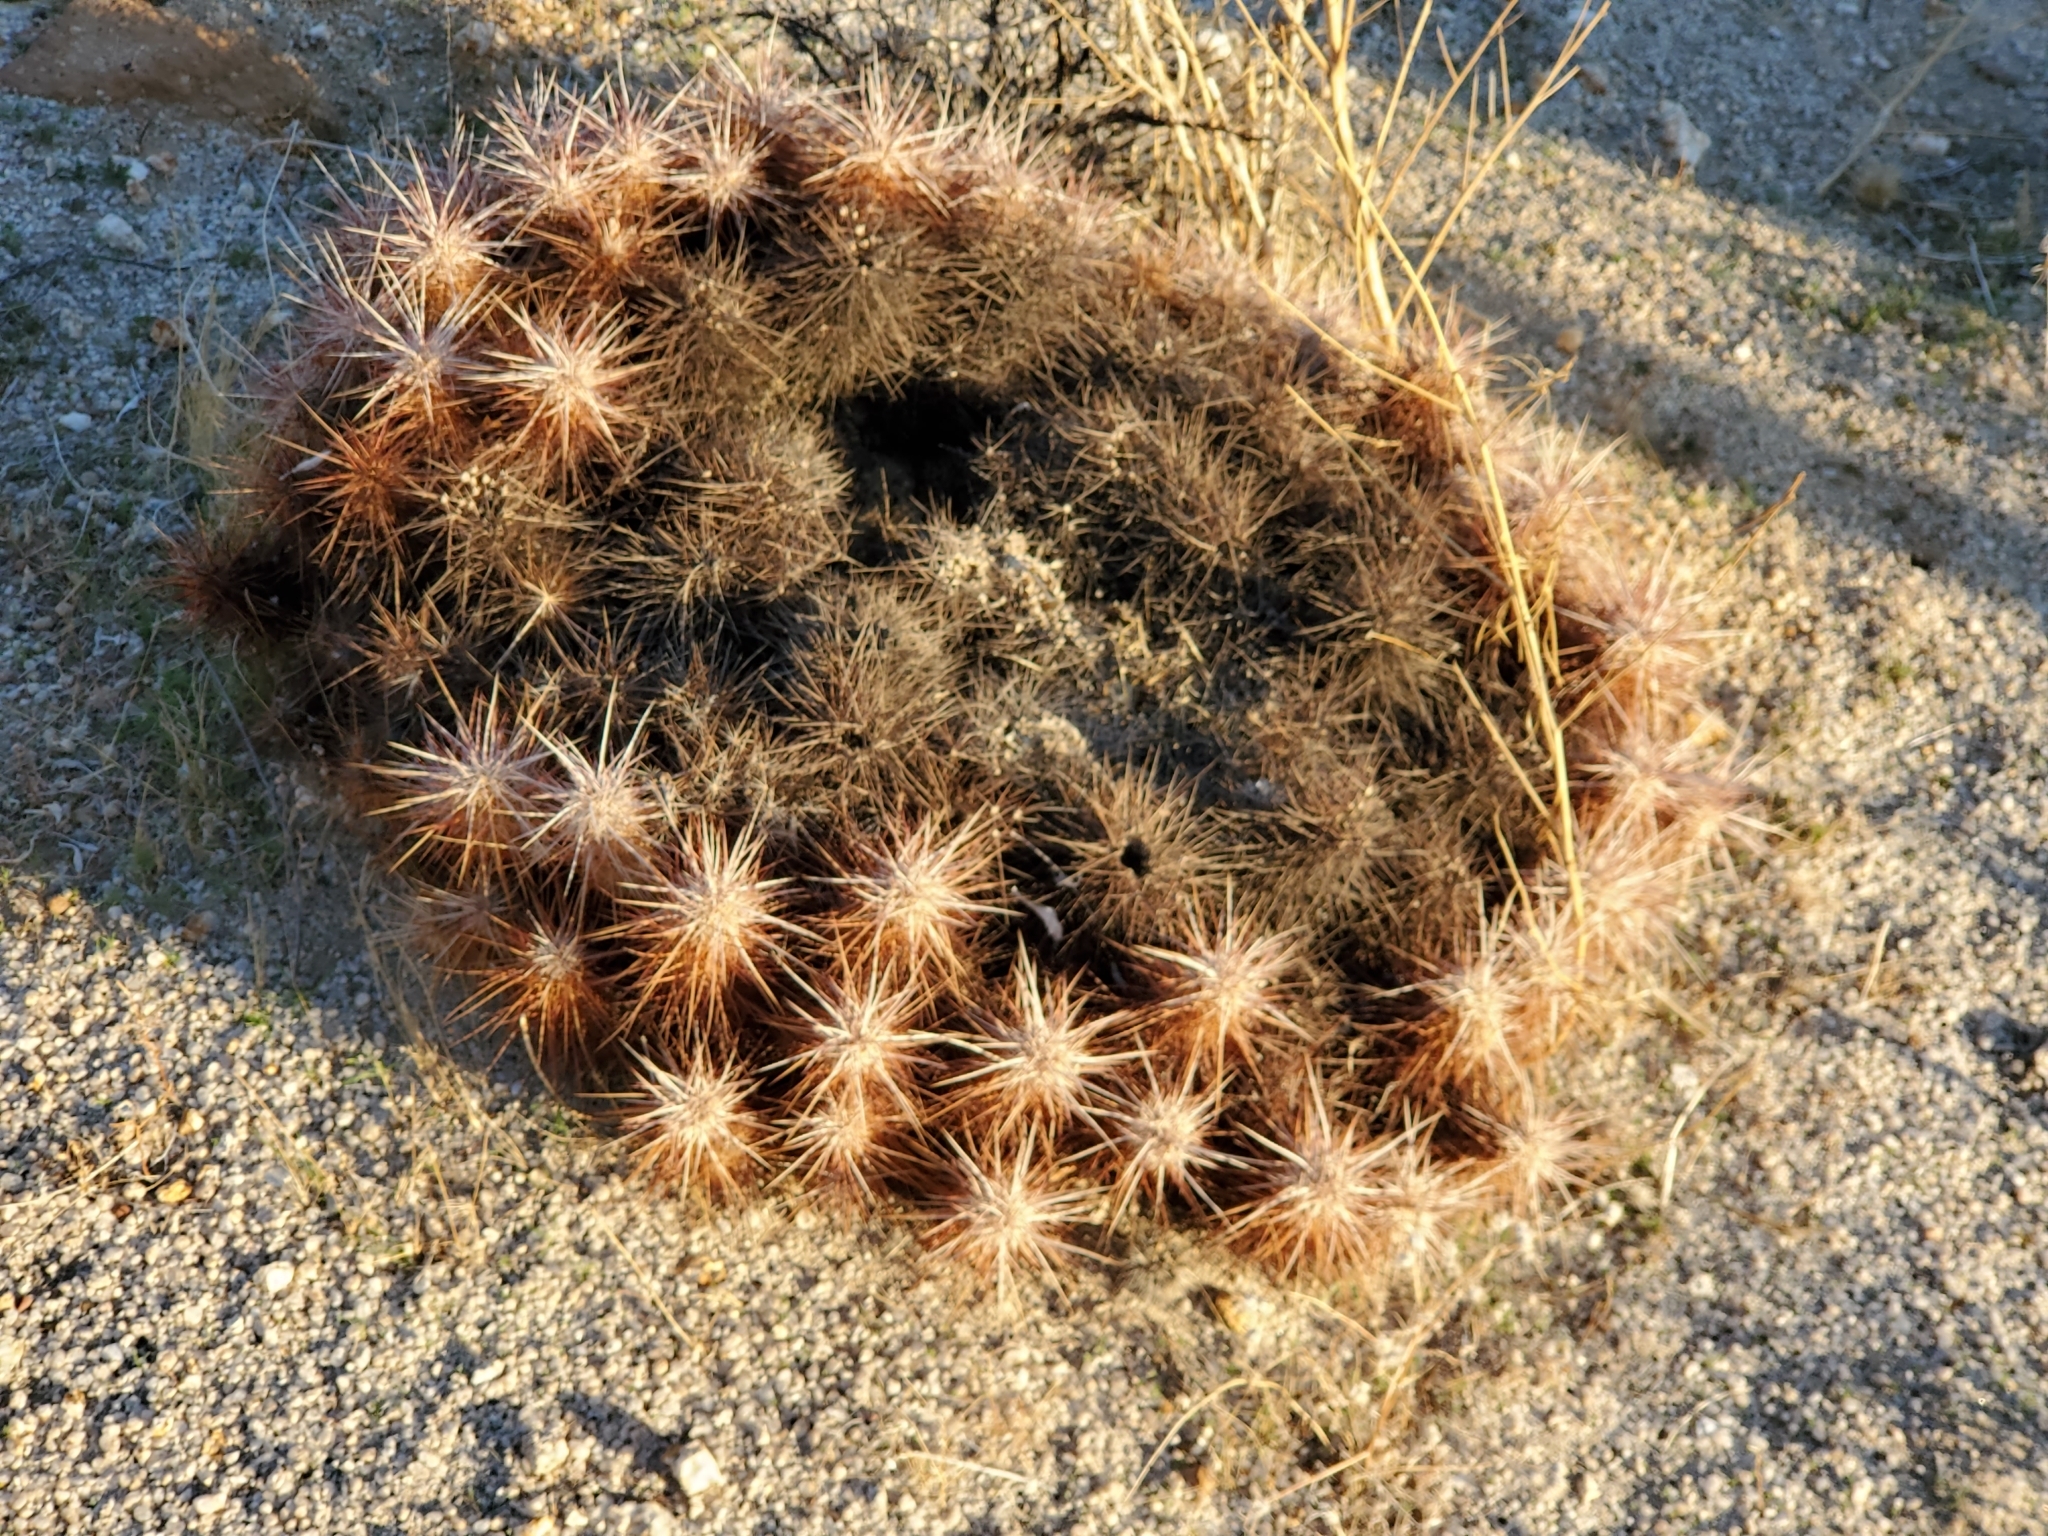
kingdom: Plantae
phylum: Tracheophyta
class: Magnoliopsida
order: Caryophyllales
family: Cactaceae
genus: Echinocereus
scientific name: Echinocereus engelmannii
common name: Engelmann's hedgehog cactus
